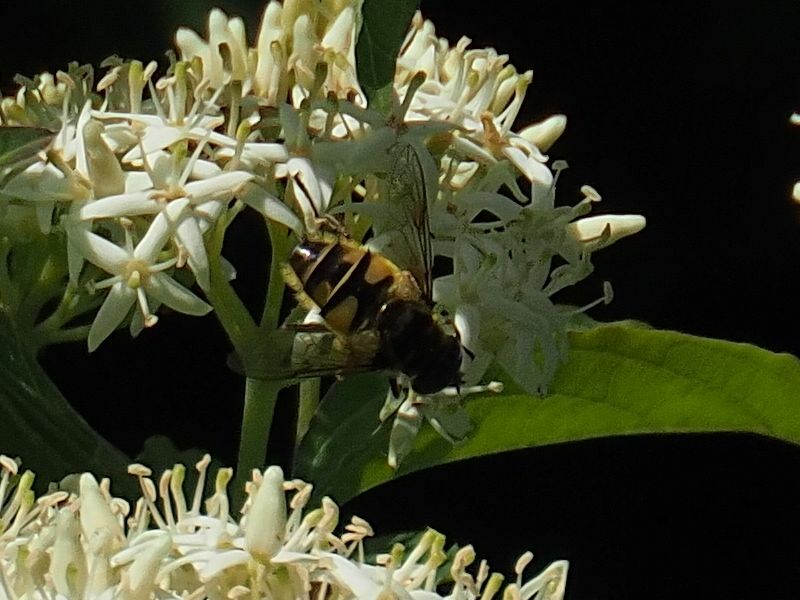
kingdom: Animalia
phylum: Arthropoda
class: Insecta
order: Diptera
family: Syrphidae
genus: Myathropa
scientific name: Myathropa florea
